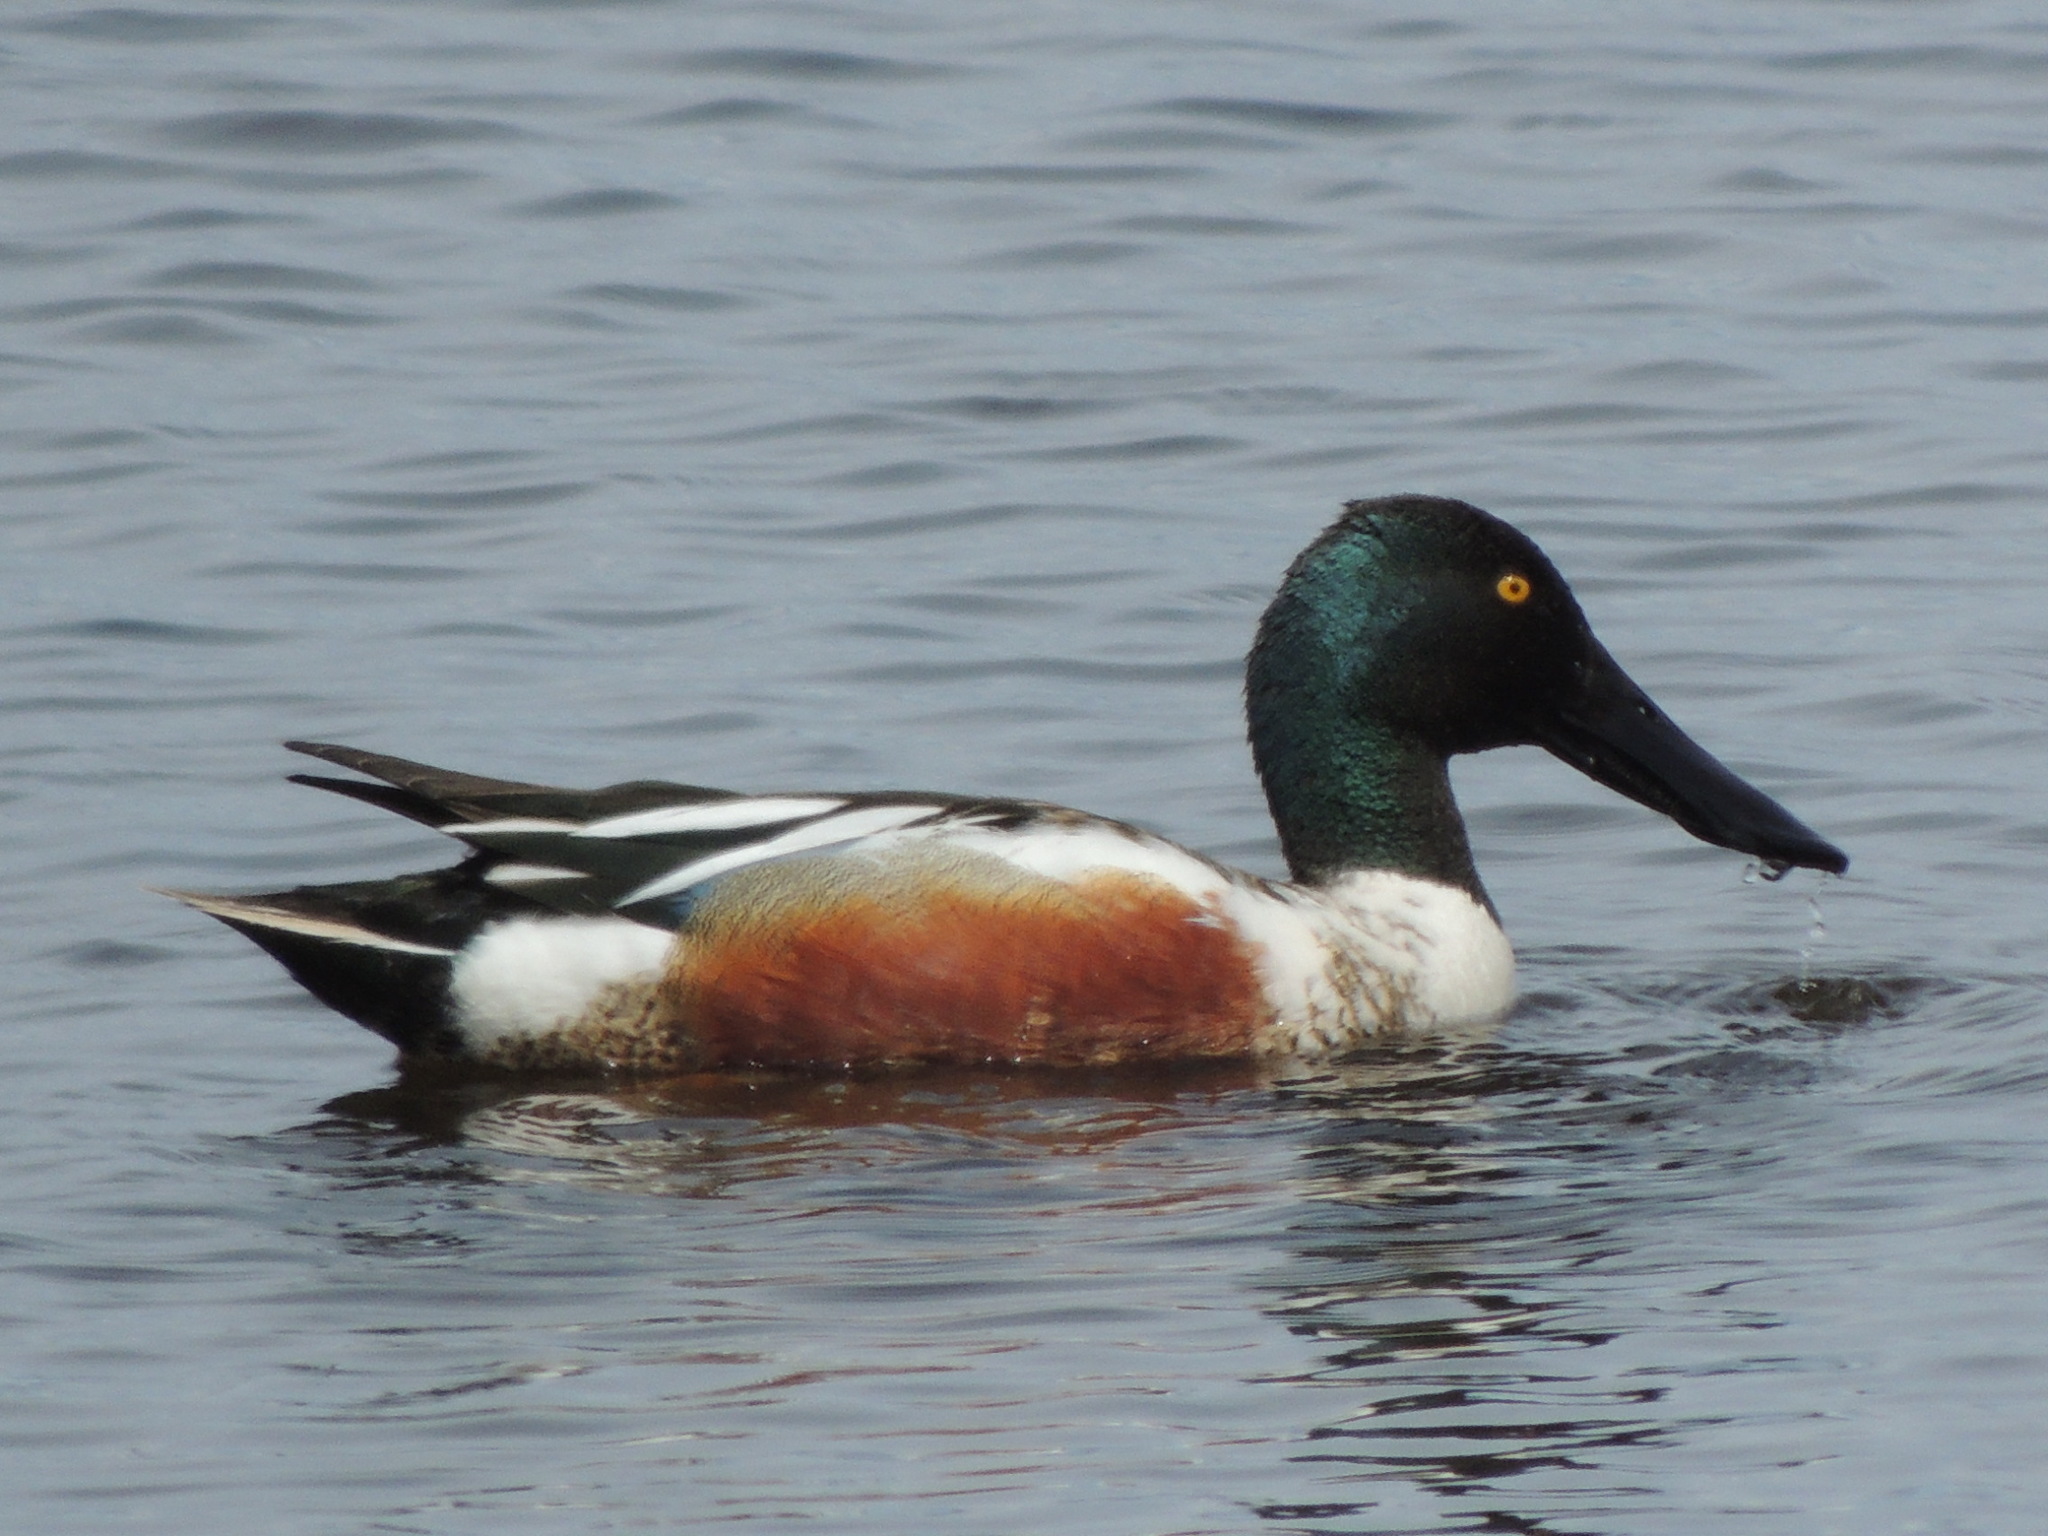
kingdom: Animalia
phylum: Chordata
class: Aves
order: Anseriformes
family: Anatidae
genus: Spatula
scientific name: Spatula clypeata
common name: Northern shoveler
